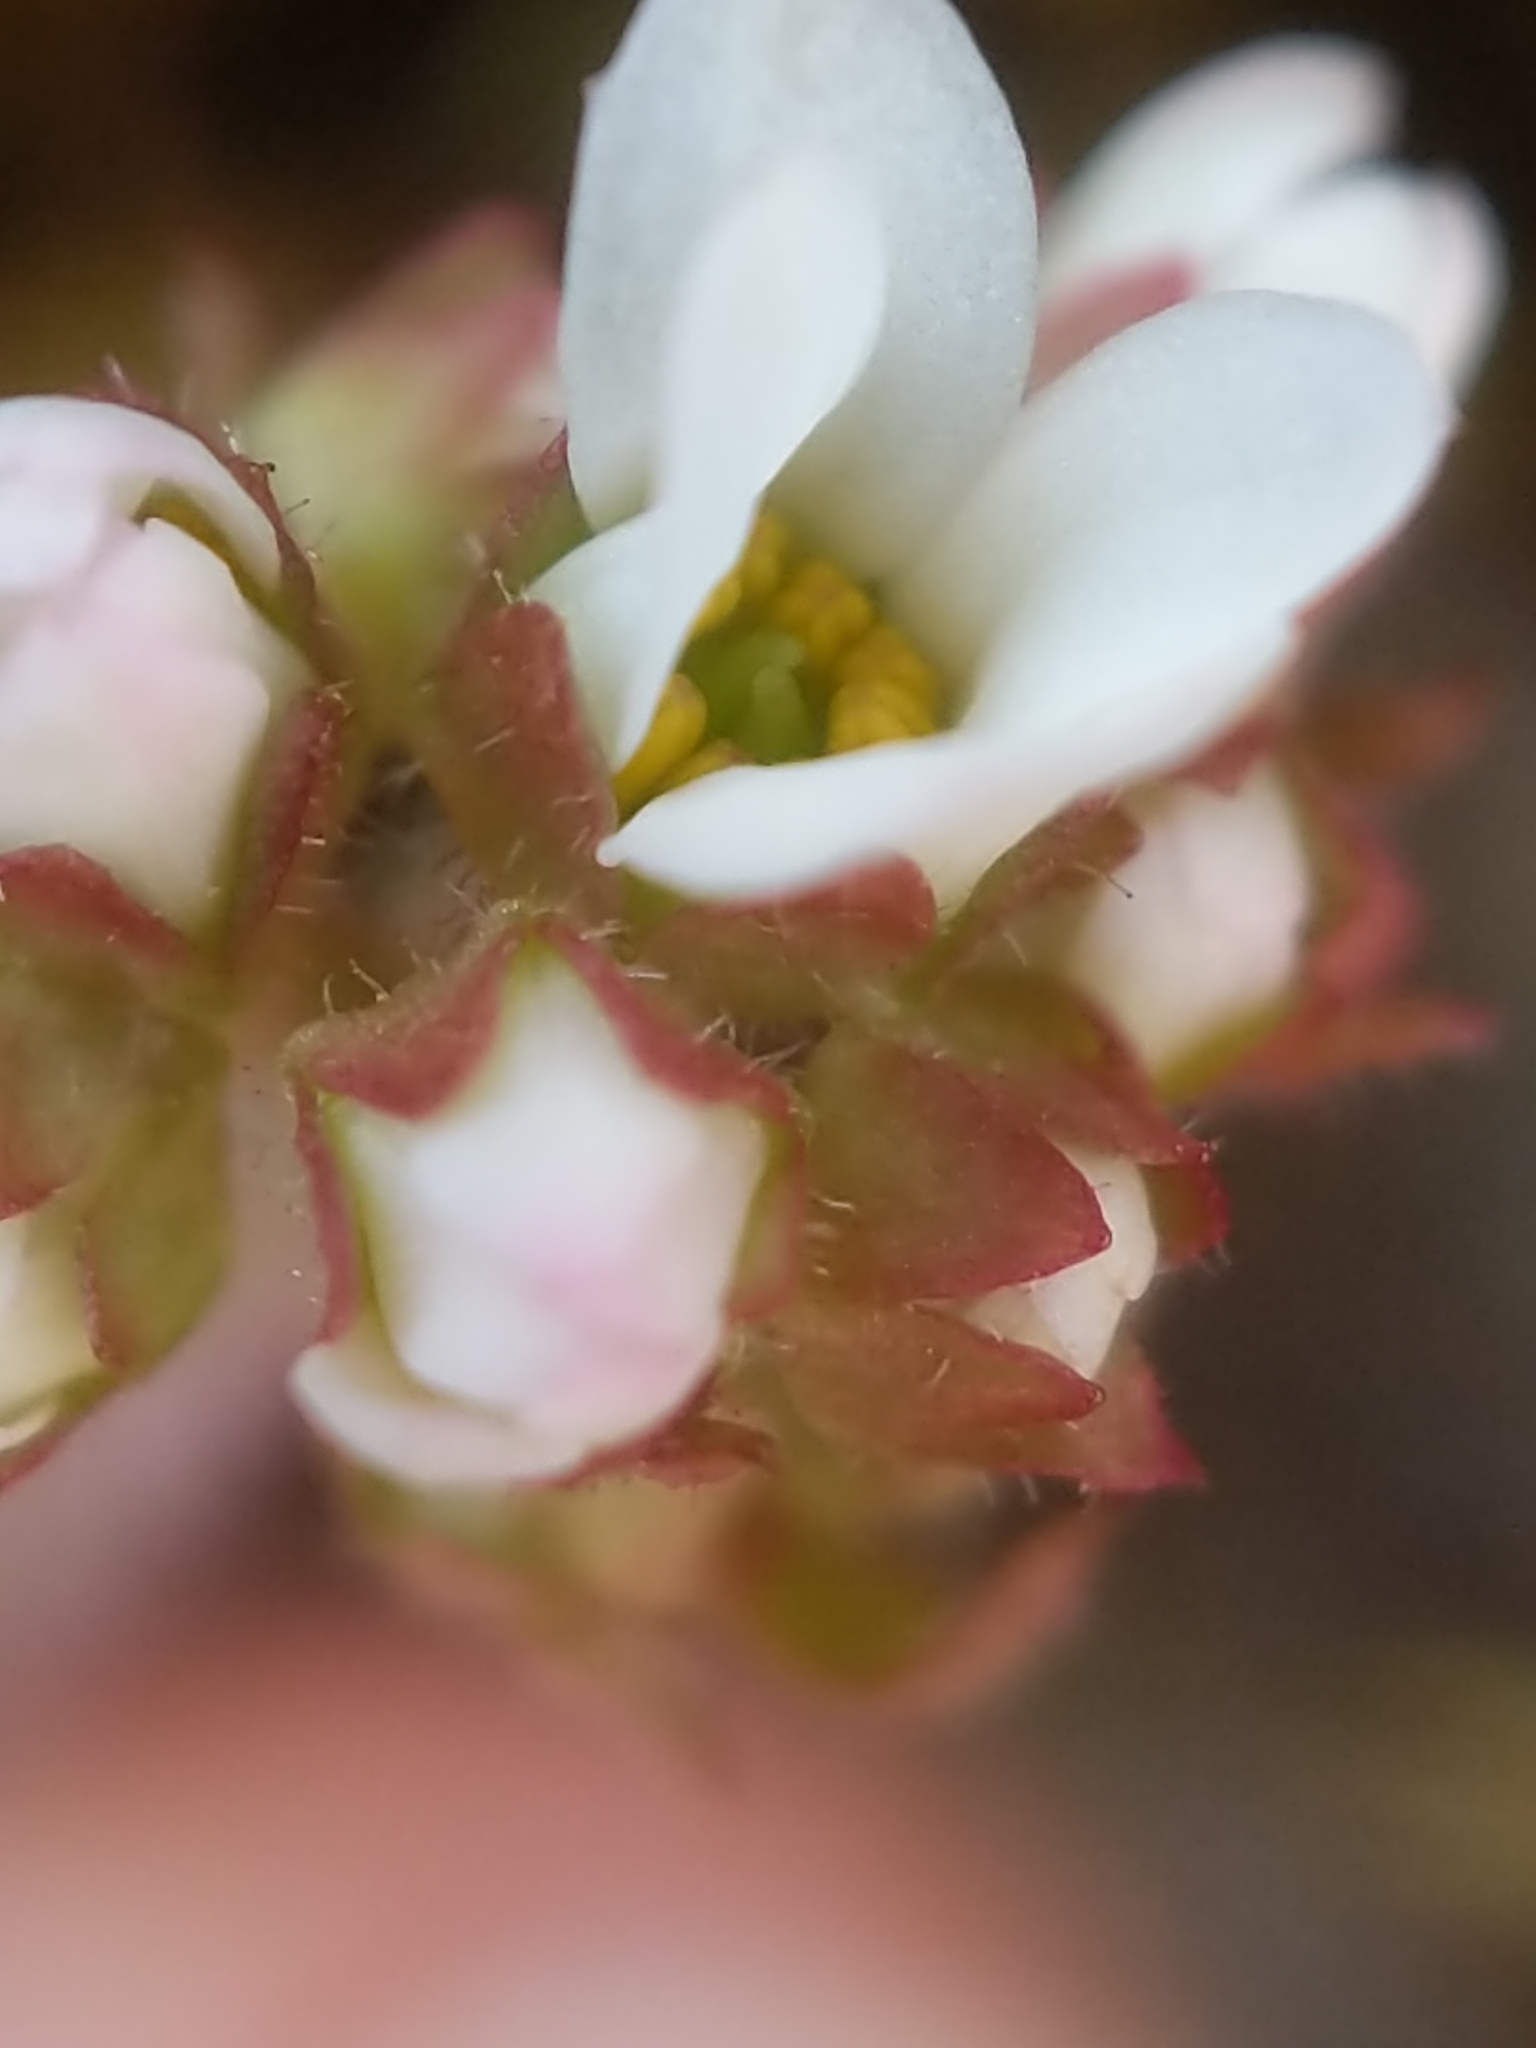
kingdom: Plantae
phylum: Tracheophyta
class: Magnoliopsida
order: Saxifragales
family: Saxifragaceae
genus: Micranthes
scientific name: Micranthes virginiensis
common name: Early saxifrage
